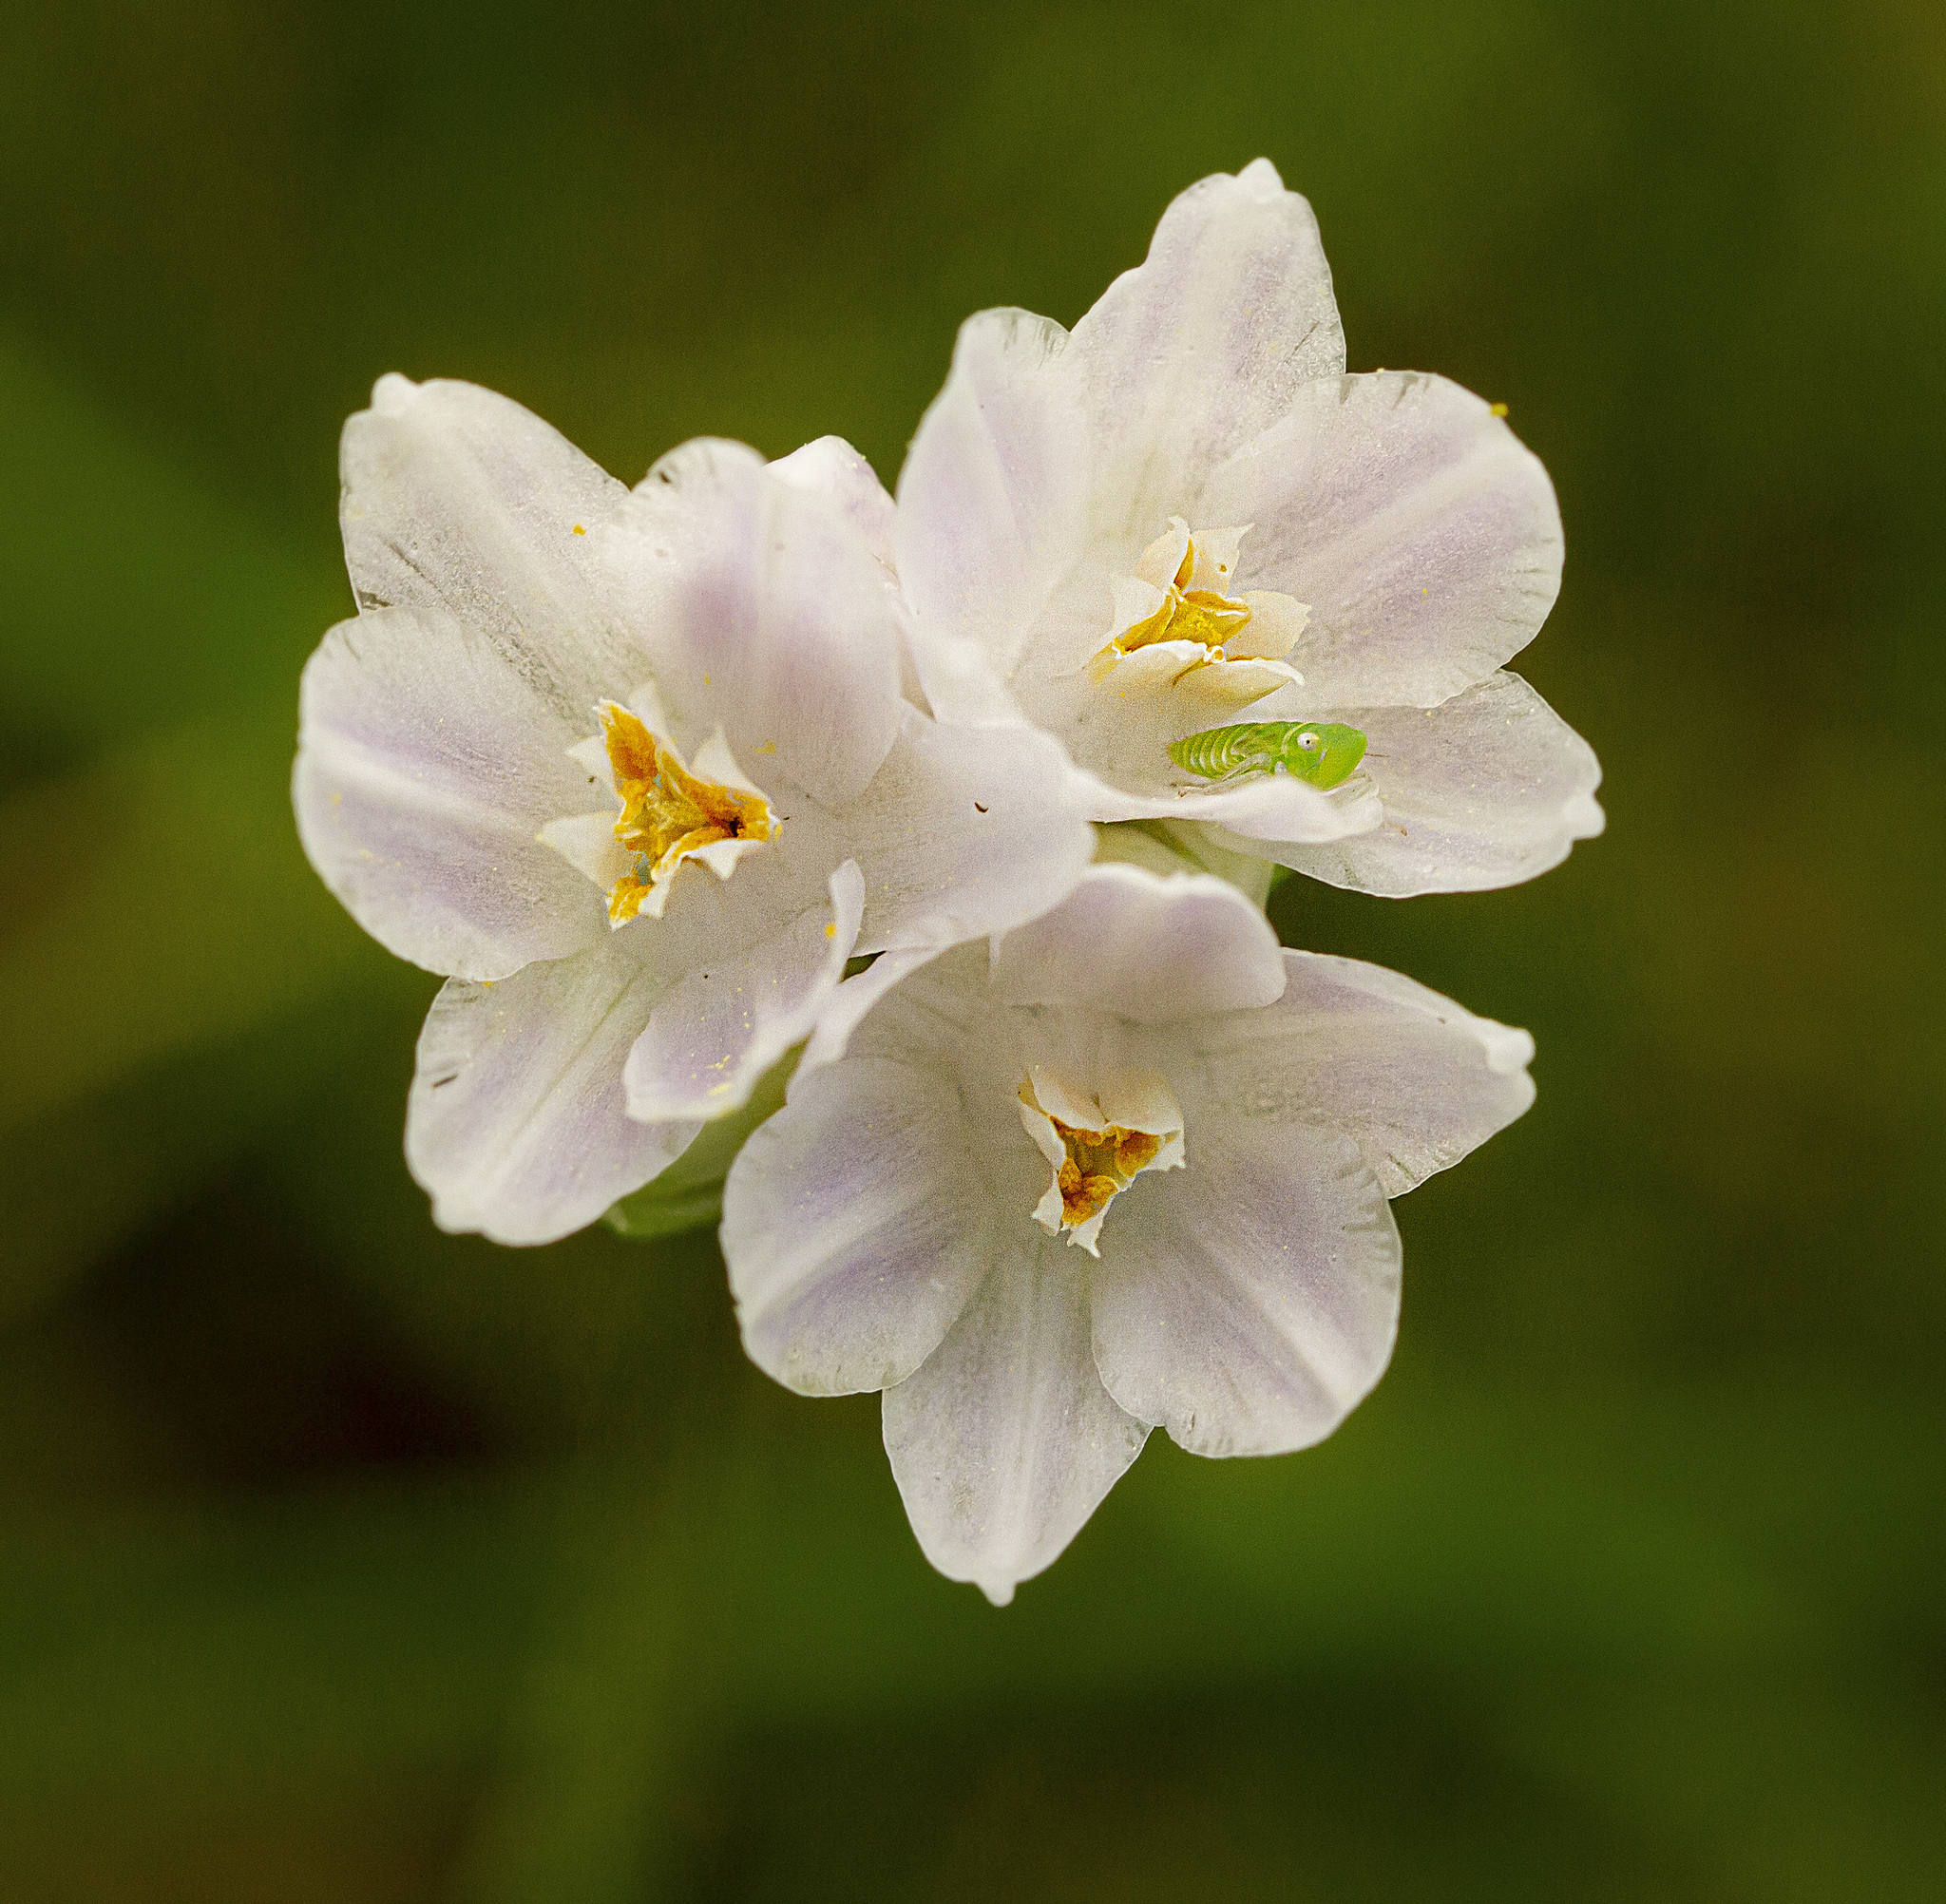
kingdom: Plantae
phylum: Tracheophyta
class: Liliopsida
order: Asparagales
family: Asparagaceae
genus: Dipterostemon
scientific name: Dipterostemon capitatus
